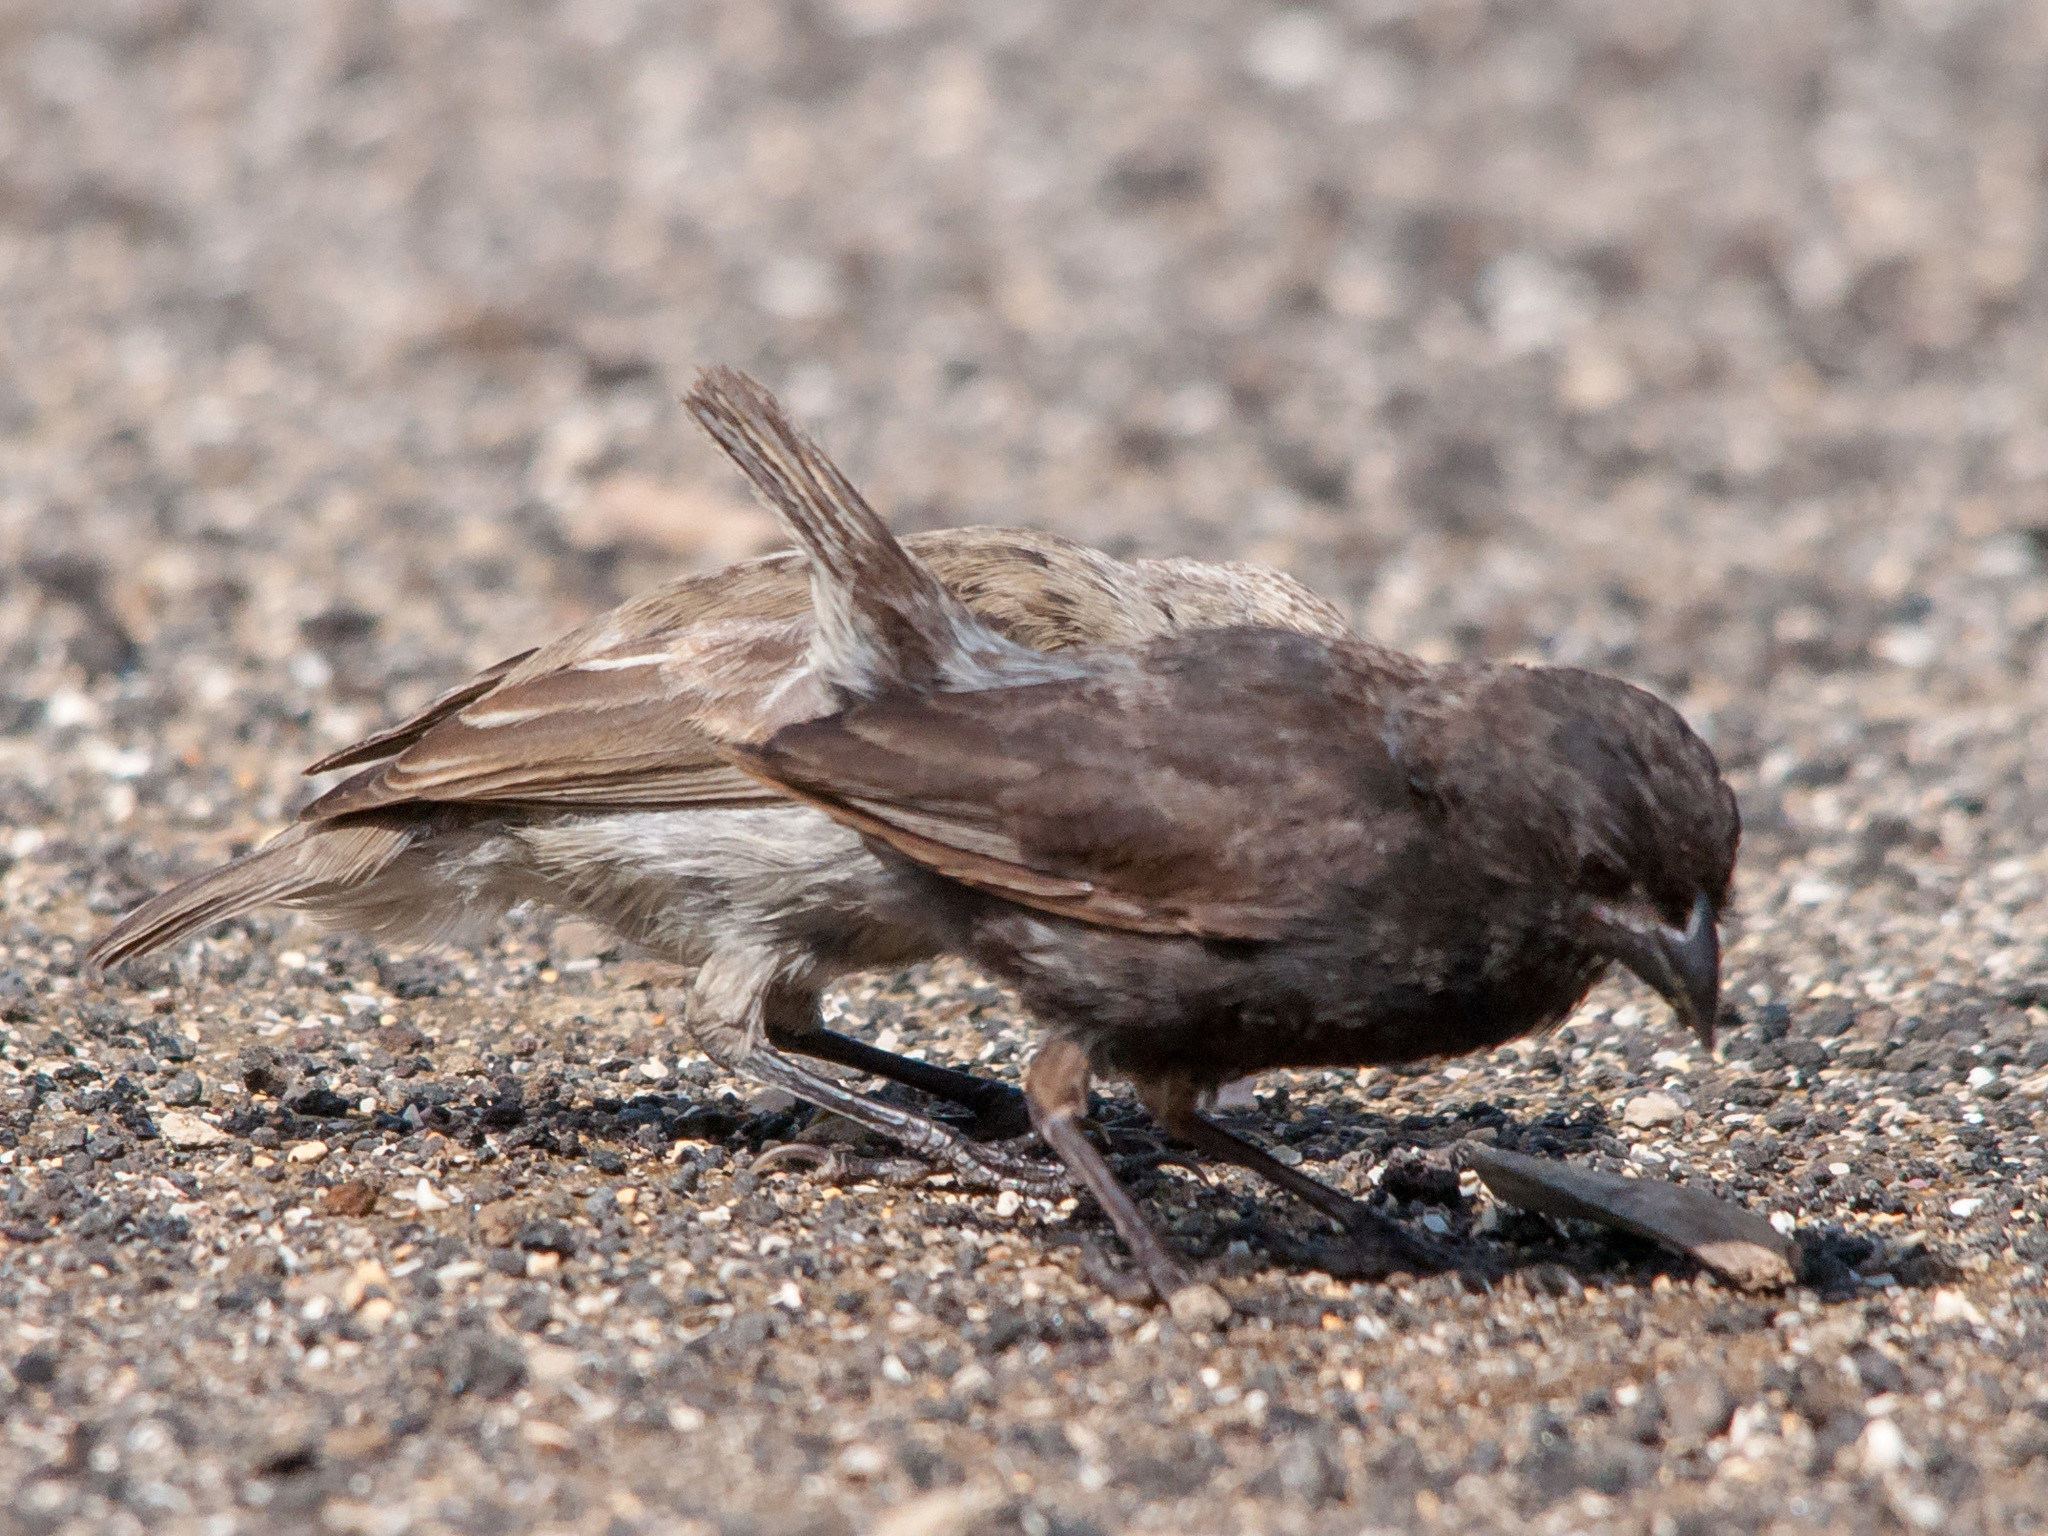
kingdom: Animalia
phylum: Chordata
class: Aves
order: Passeriformes
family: Thraupidae
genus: Geospiza
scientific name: Geospiza fuliginosa
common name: Small ground finch
